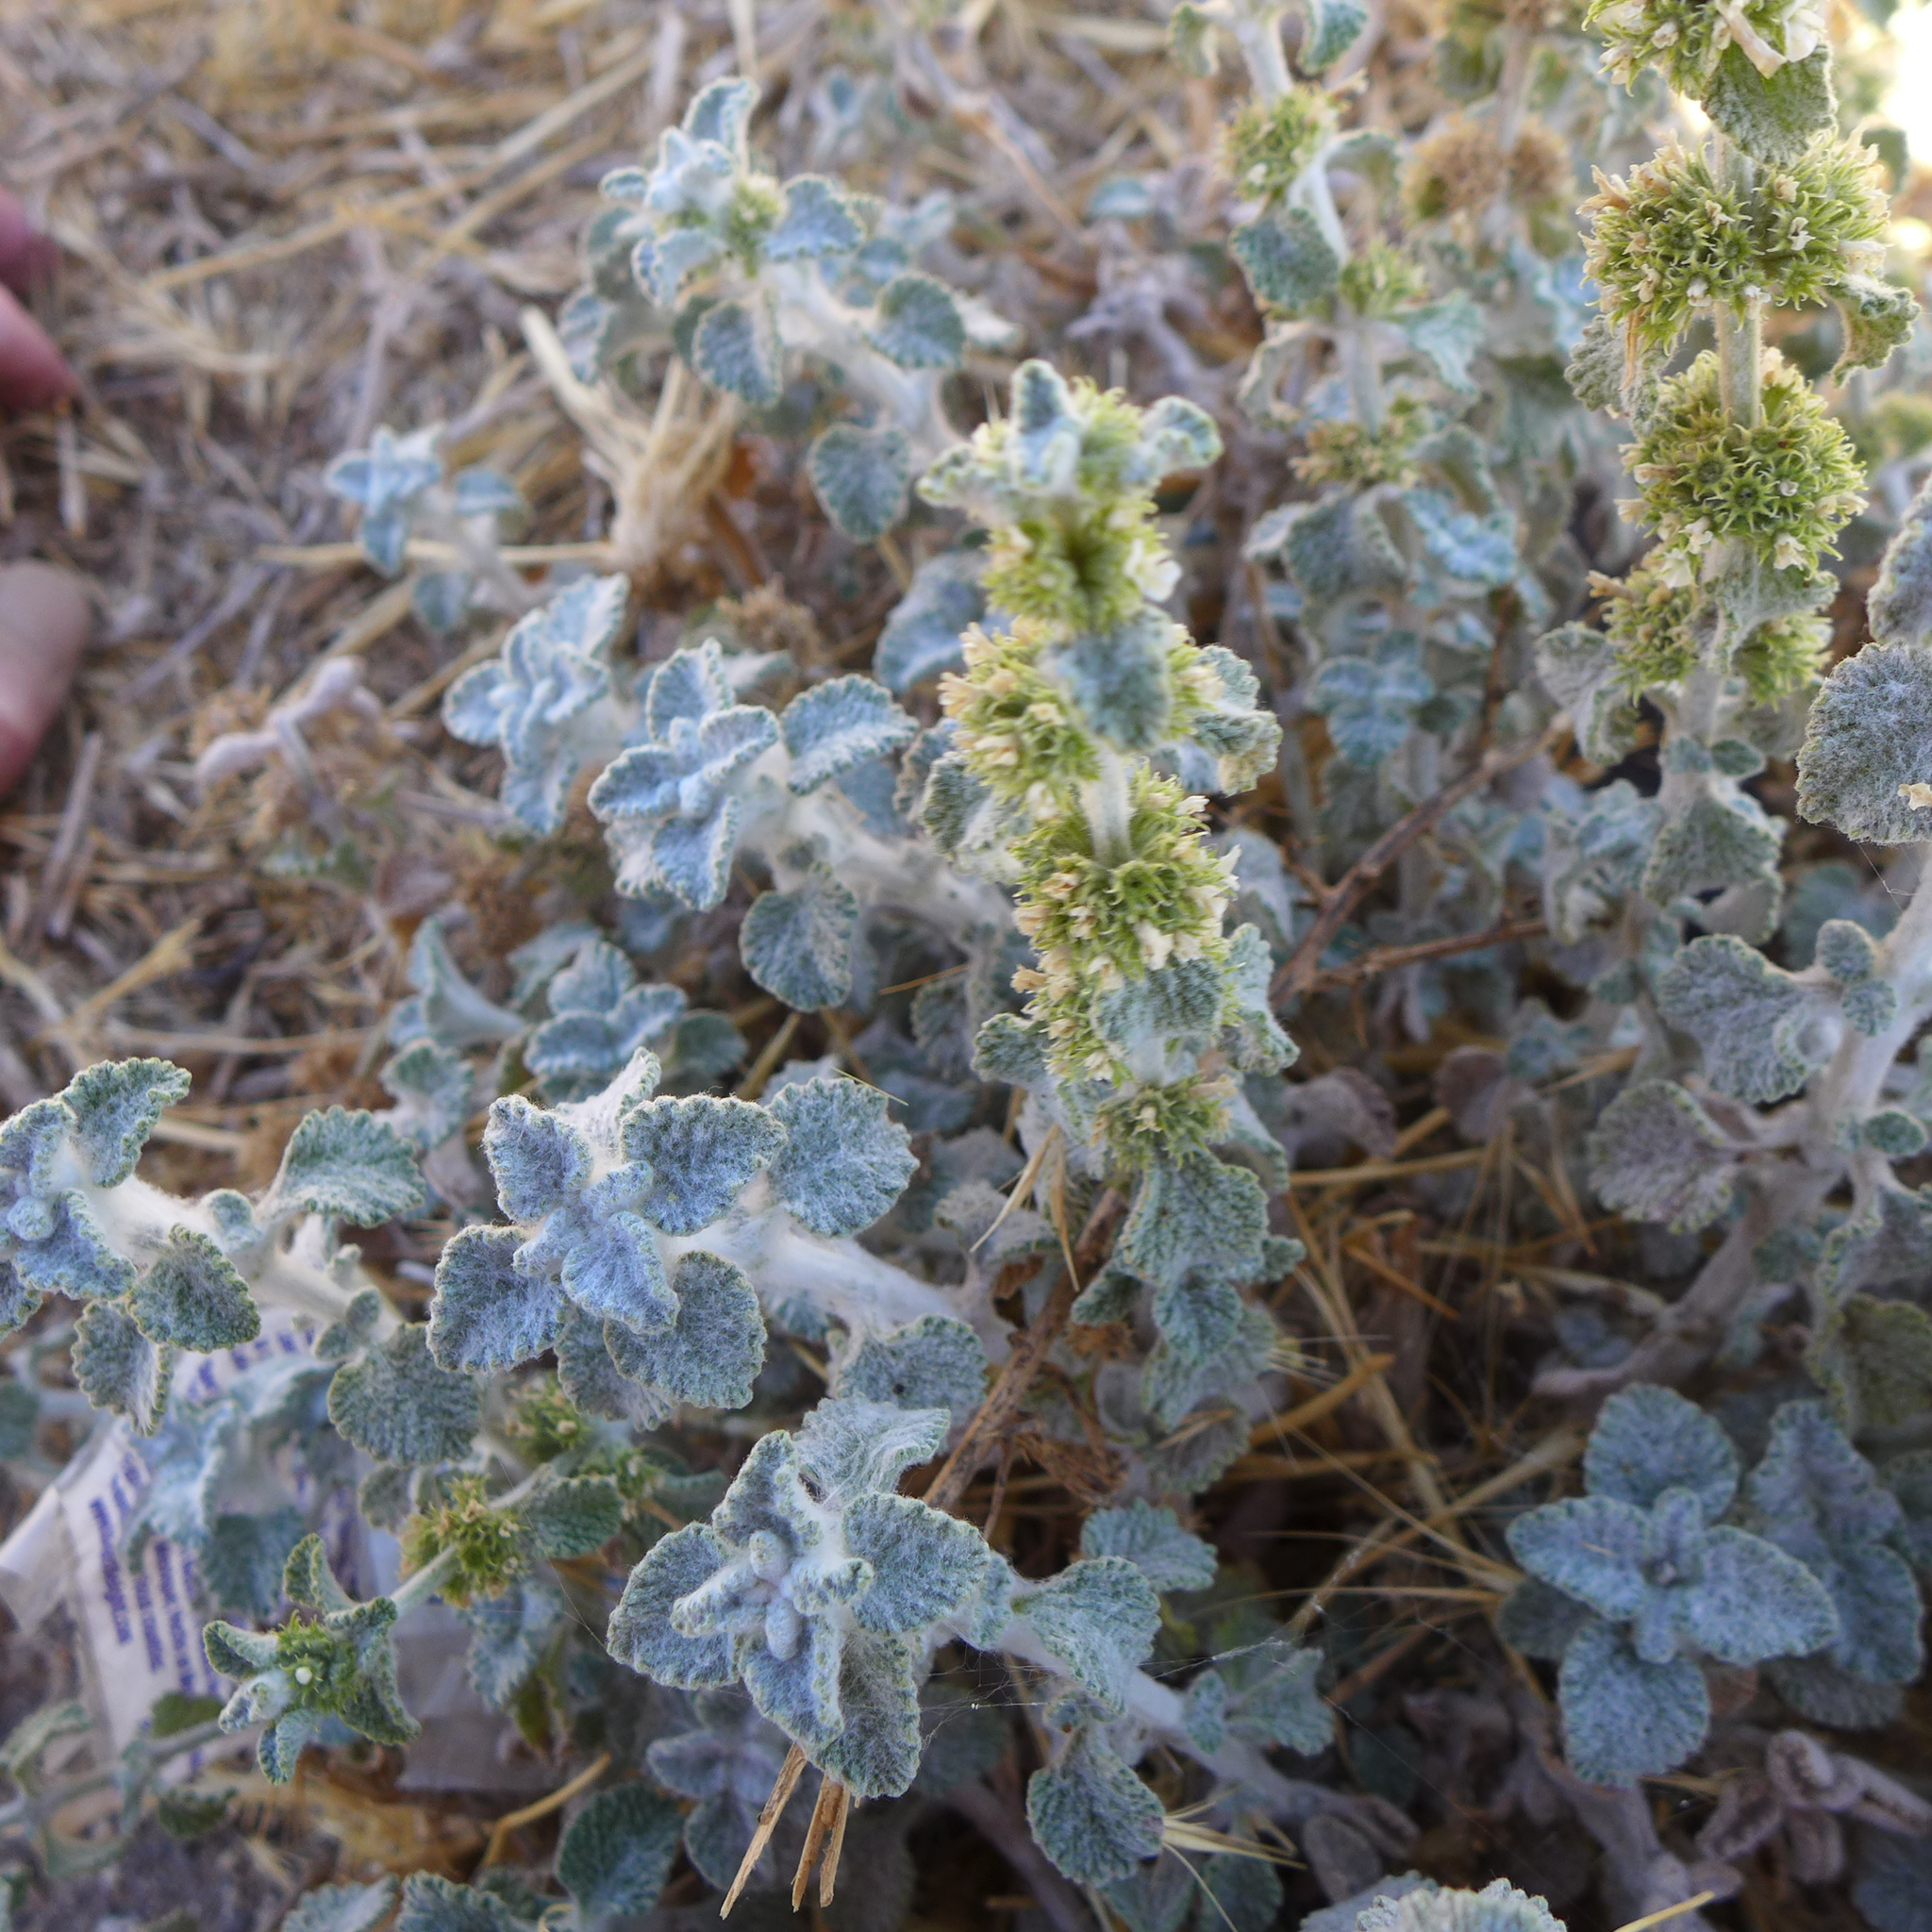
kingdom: Plantae
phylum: Tracheophyta
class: Magnoliopsida
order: Lamiales
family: Lamiaceae
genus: Marrubium
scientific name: Marrubium vulgare
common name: Horehound
